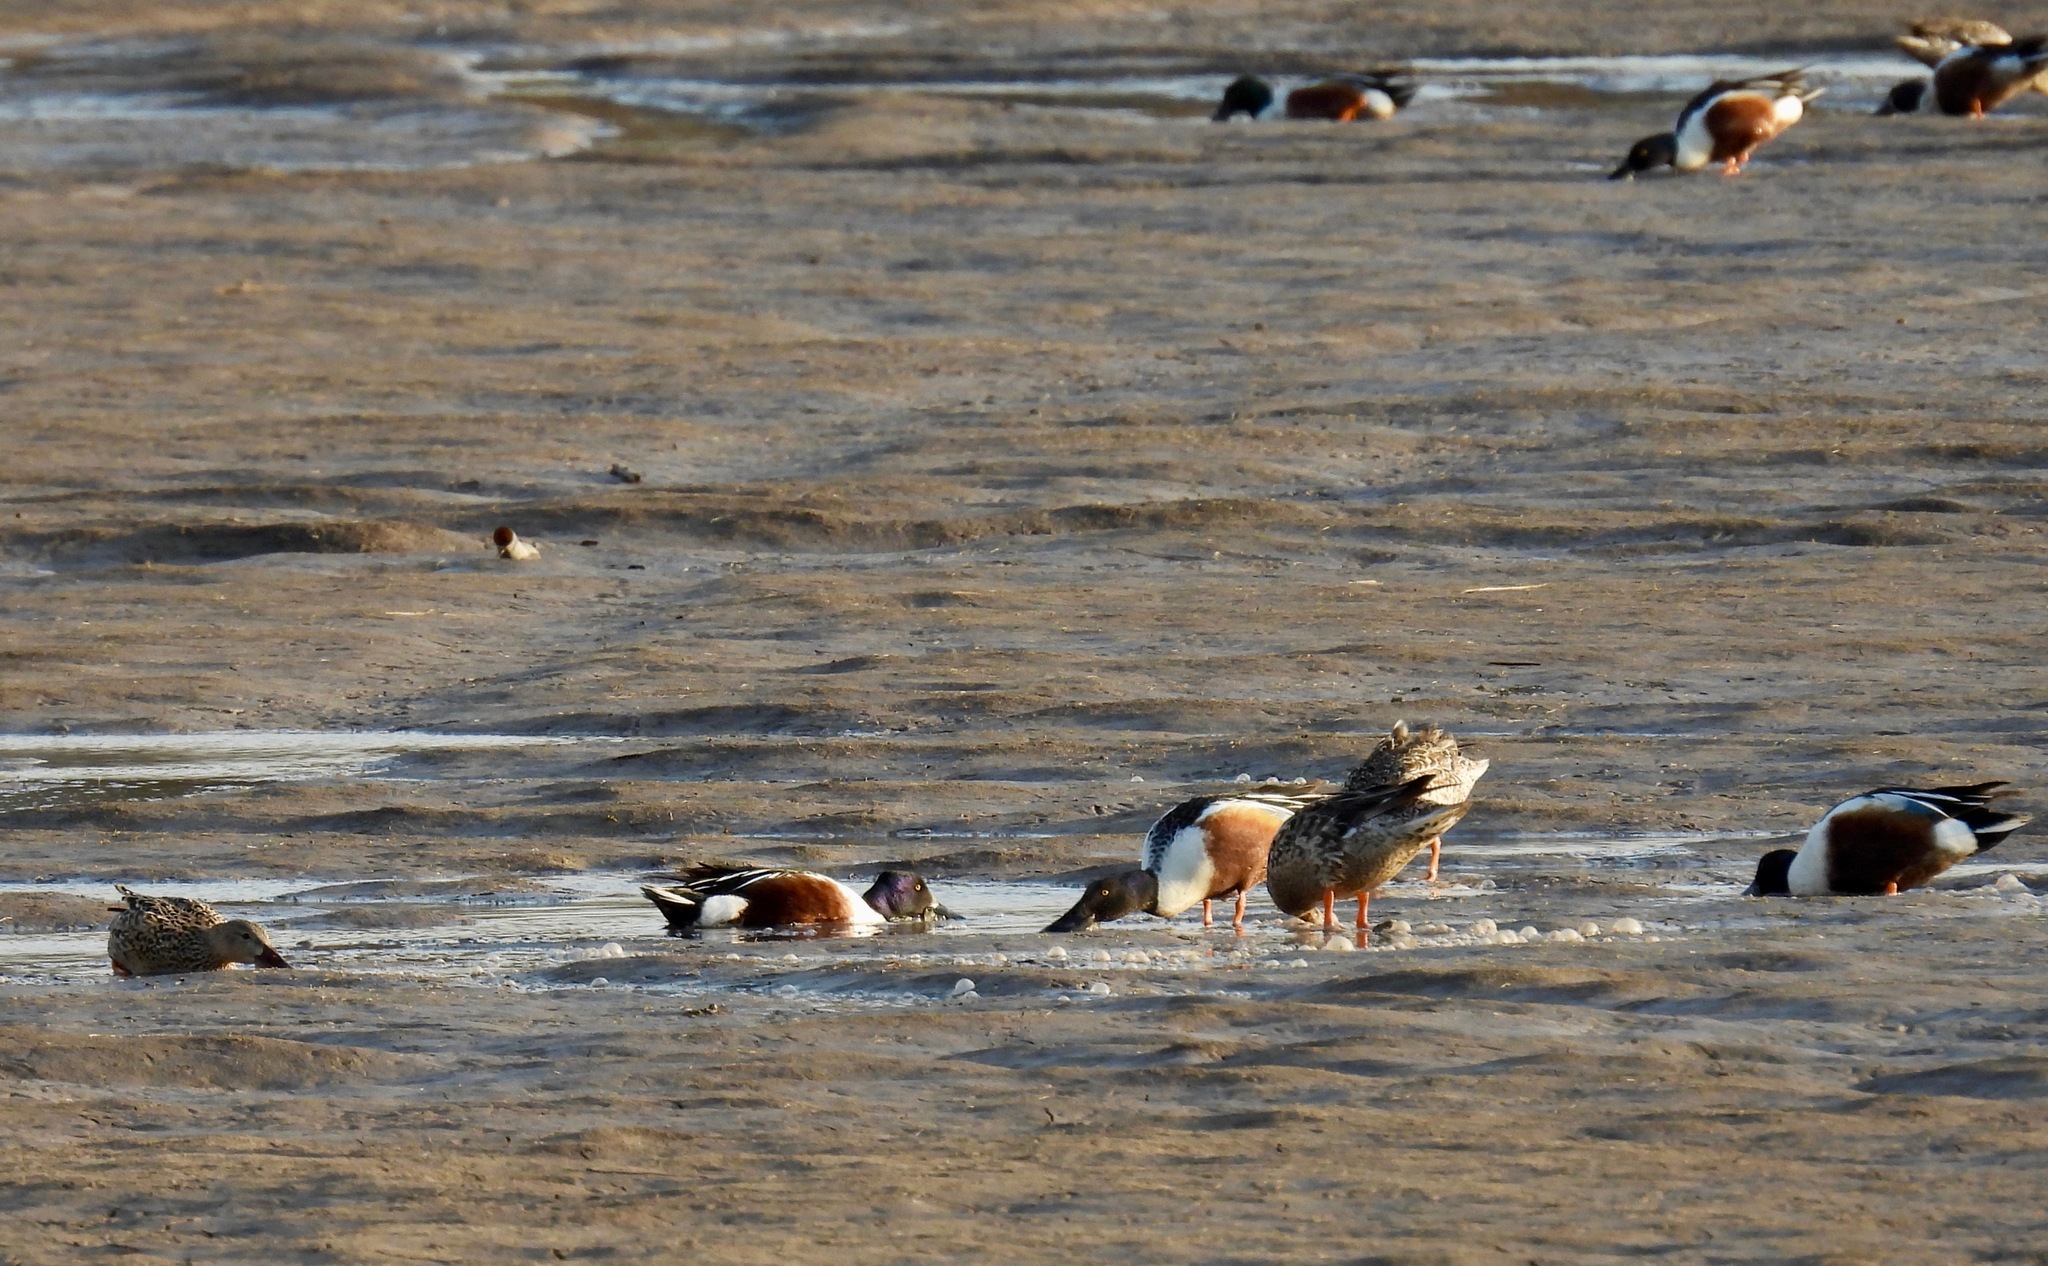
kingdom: Animalia
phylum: Chordata
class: Aves
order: Anseriformes
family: Anatidae
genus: Spatula
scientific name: Spatula clypeata
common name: Northern shoveler
